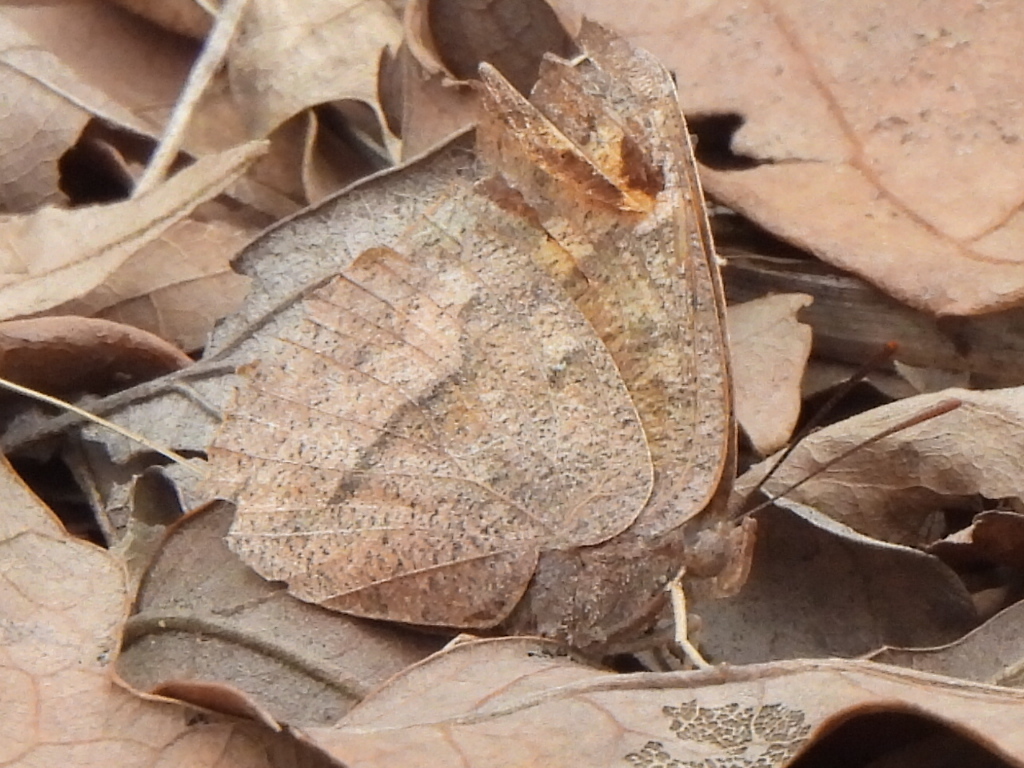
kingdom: Animalia
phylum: Arthropoda
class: Insecta
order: Lepidoptera
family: Nymphalidae
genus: Anaea
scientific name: Anaea andria
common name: Goatweed leafwing
